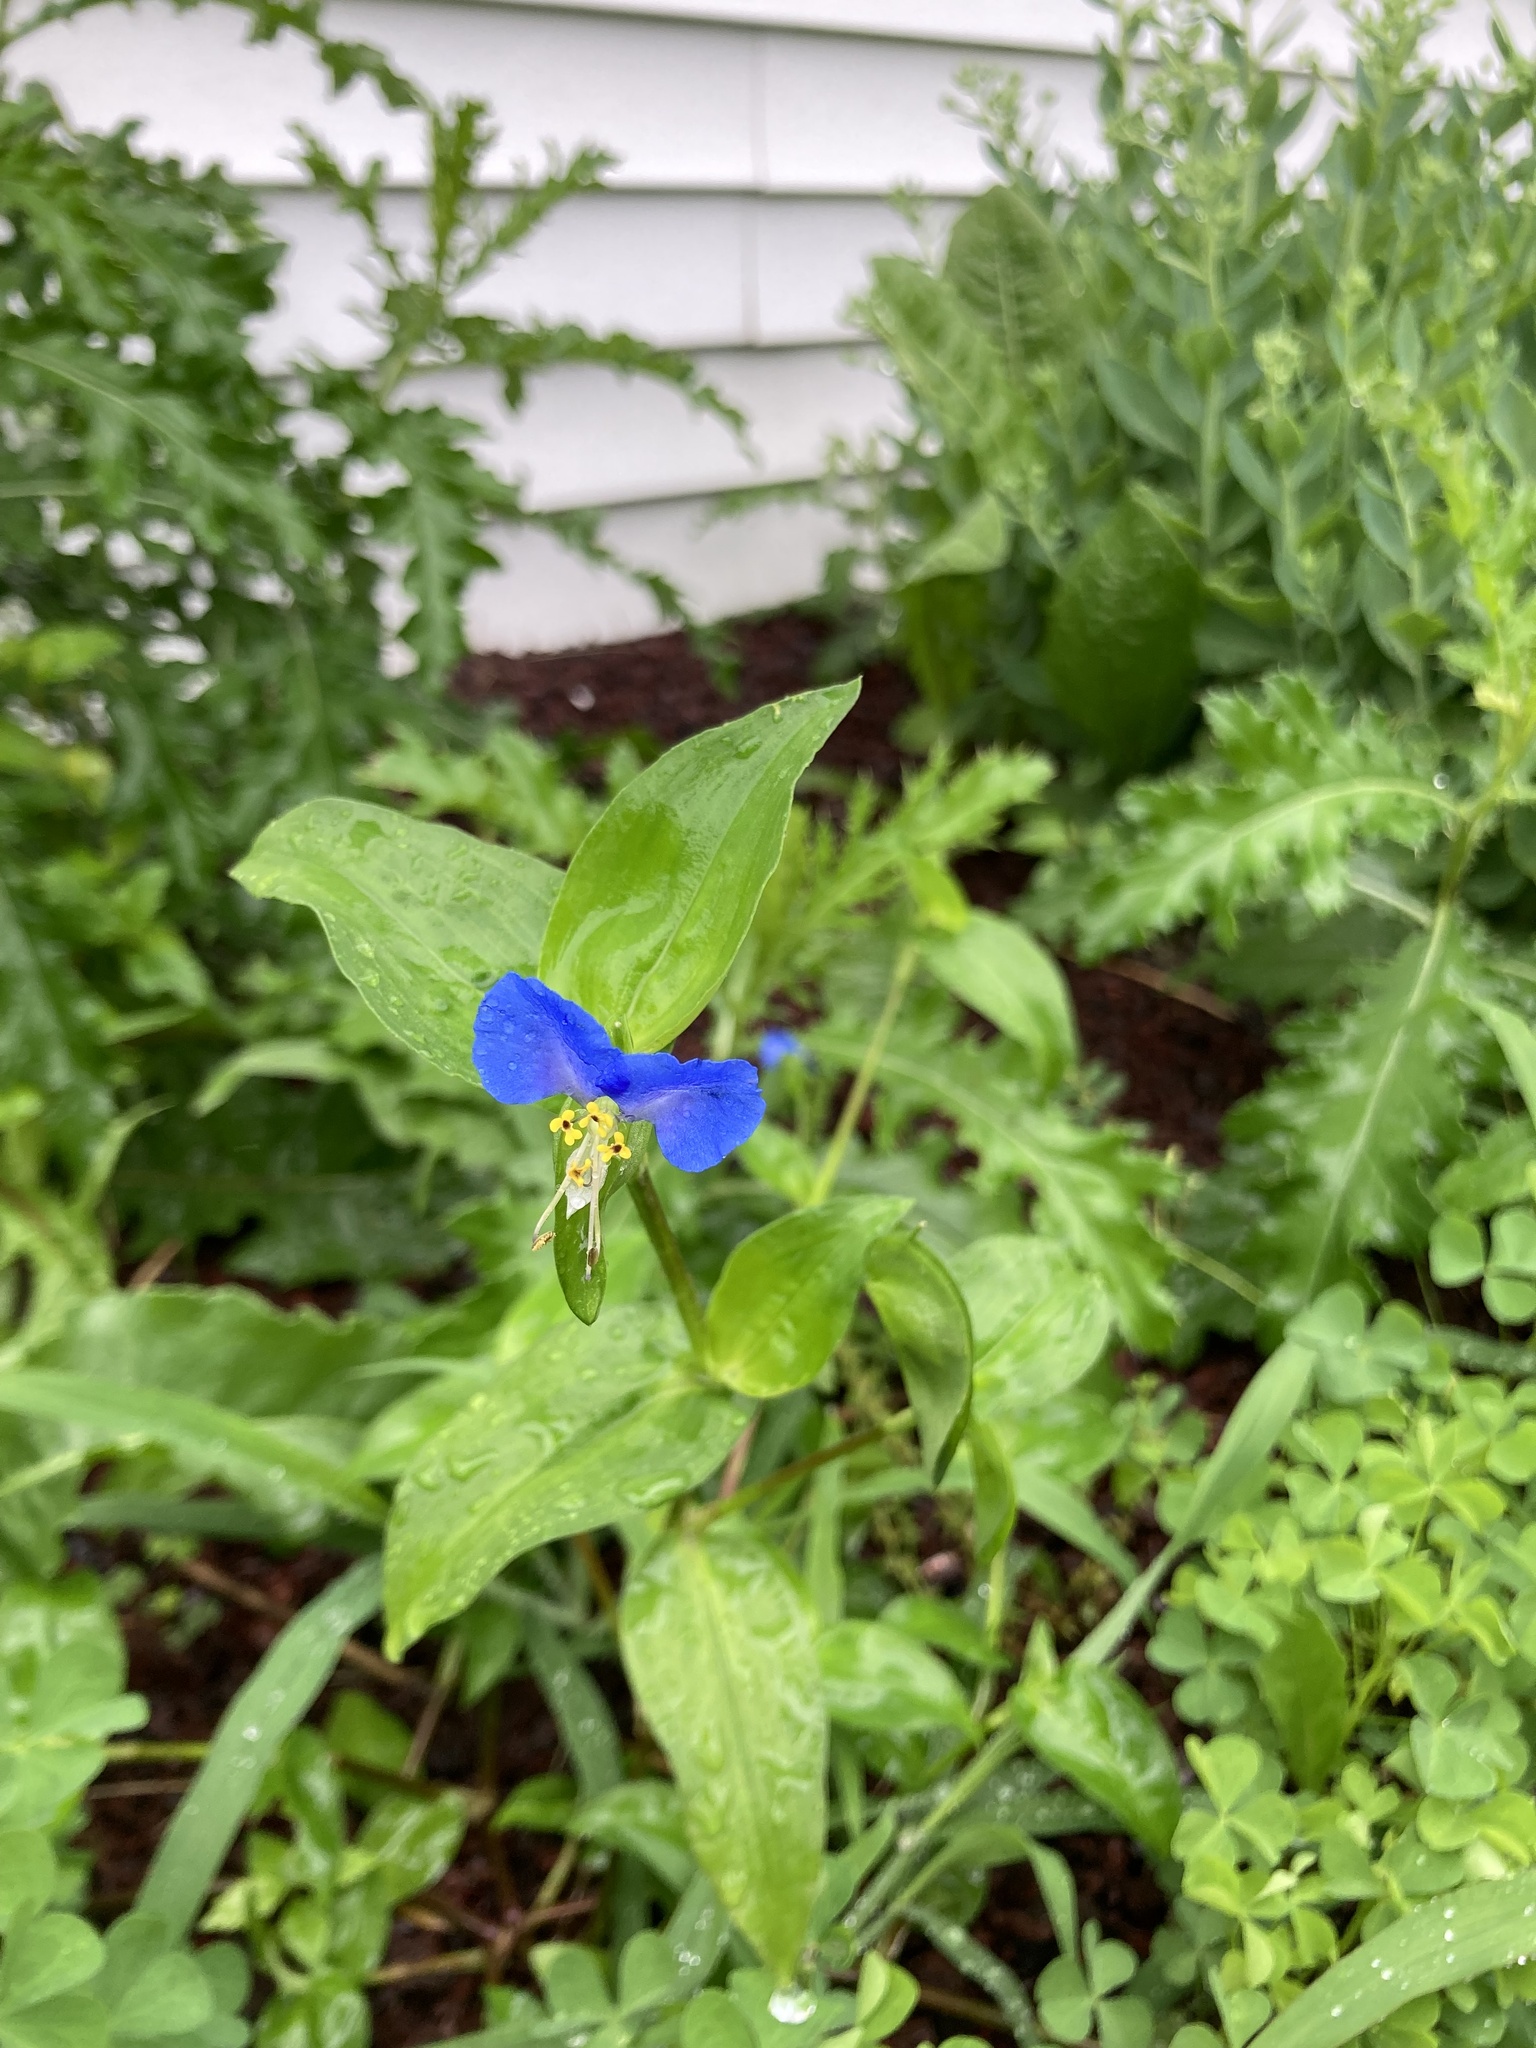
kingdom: Plantae
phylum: Tracheophyta
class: Liliopsida
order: Commelinales
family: Commelinaceae
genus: Commelina
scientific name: Commelina communis
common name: Asiatic dayflower
